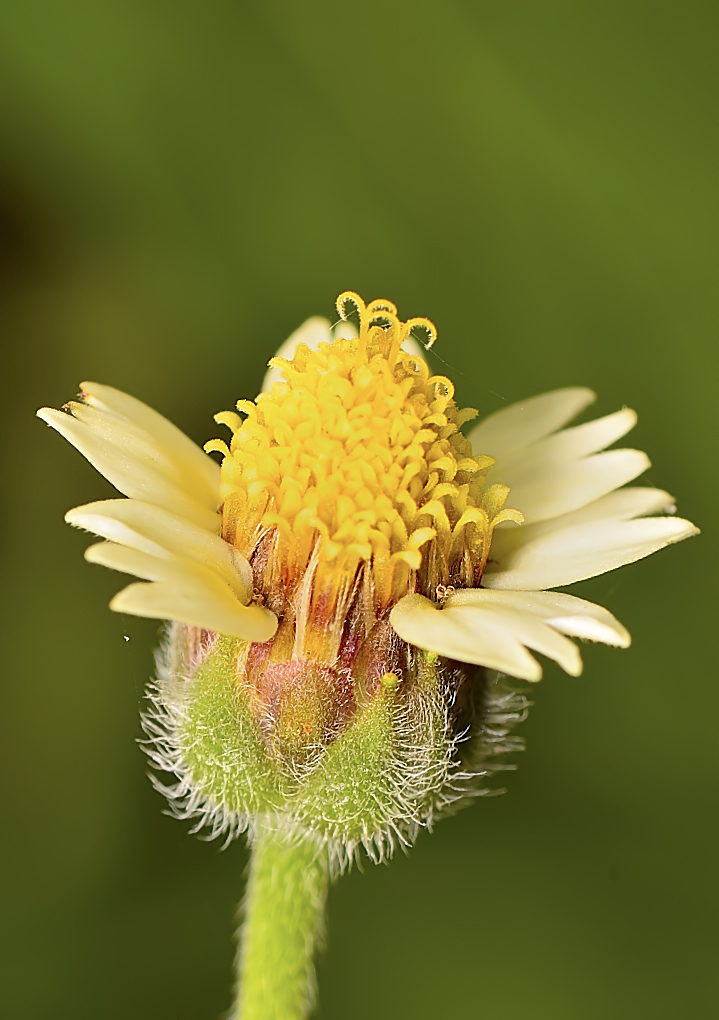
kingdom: Plantae
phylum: Tracheophyta
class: Magnoliopsida
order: Asterales
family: Asteraceae
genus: Tridax
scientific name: Tridax procumbens
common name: Coatbuttons
